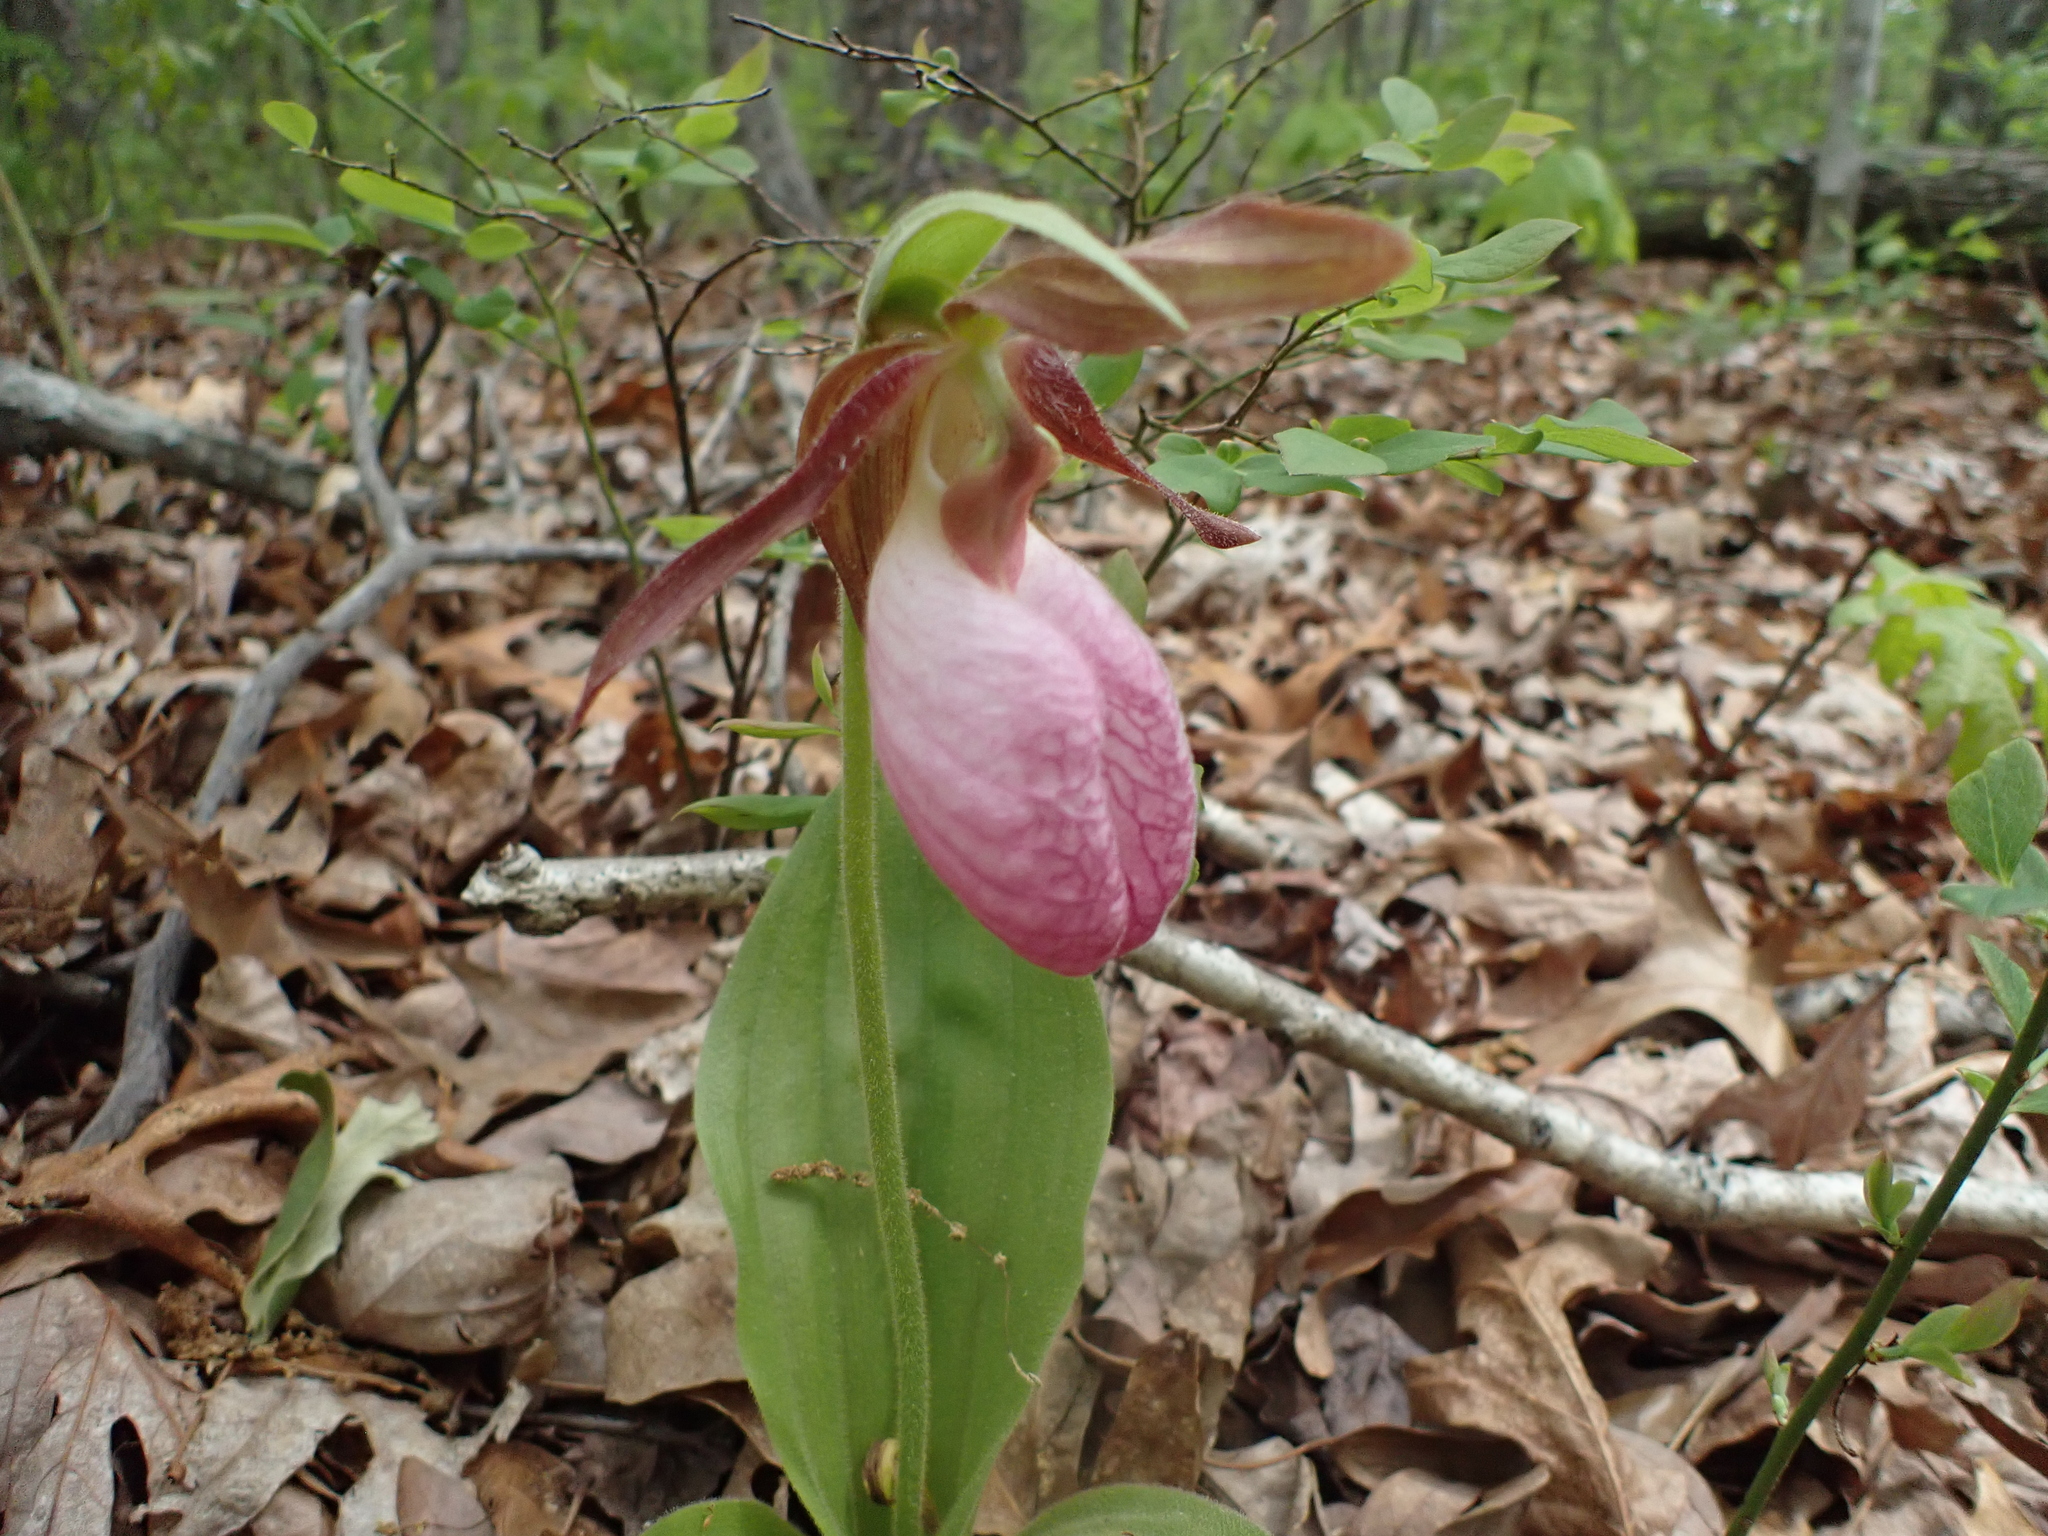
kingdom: Plantae
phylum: Tracheophyta
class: Liliopsida
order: Asparagales
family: Orchidaceae
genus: Cypripedium
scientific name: Cypripedium acaule
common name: Pink lady's-slipper
